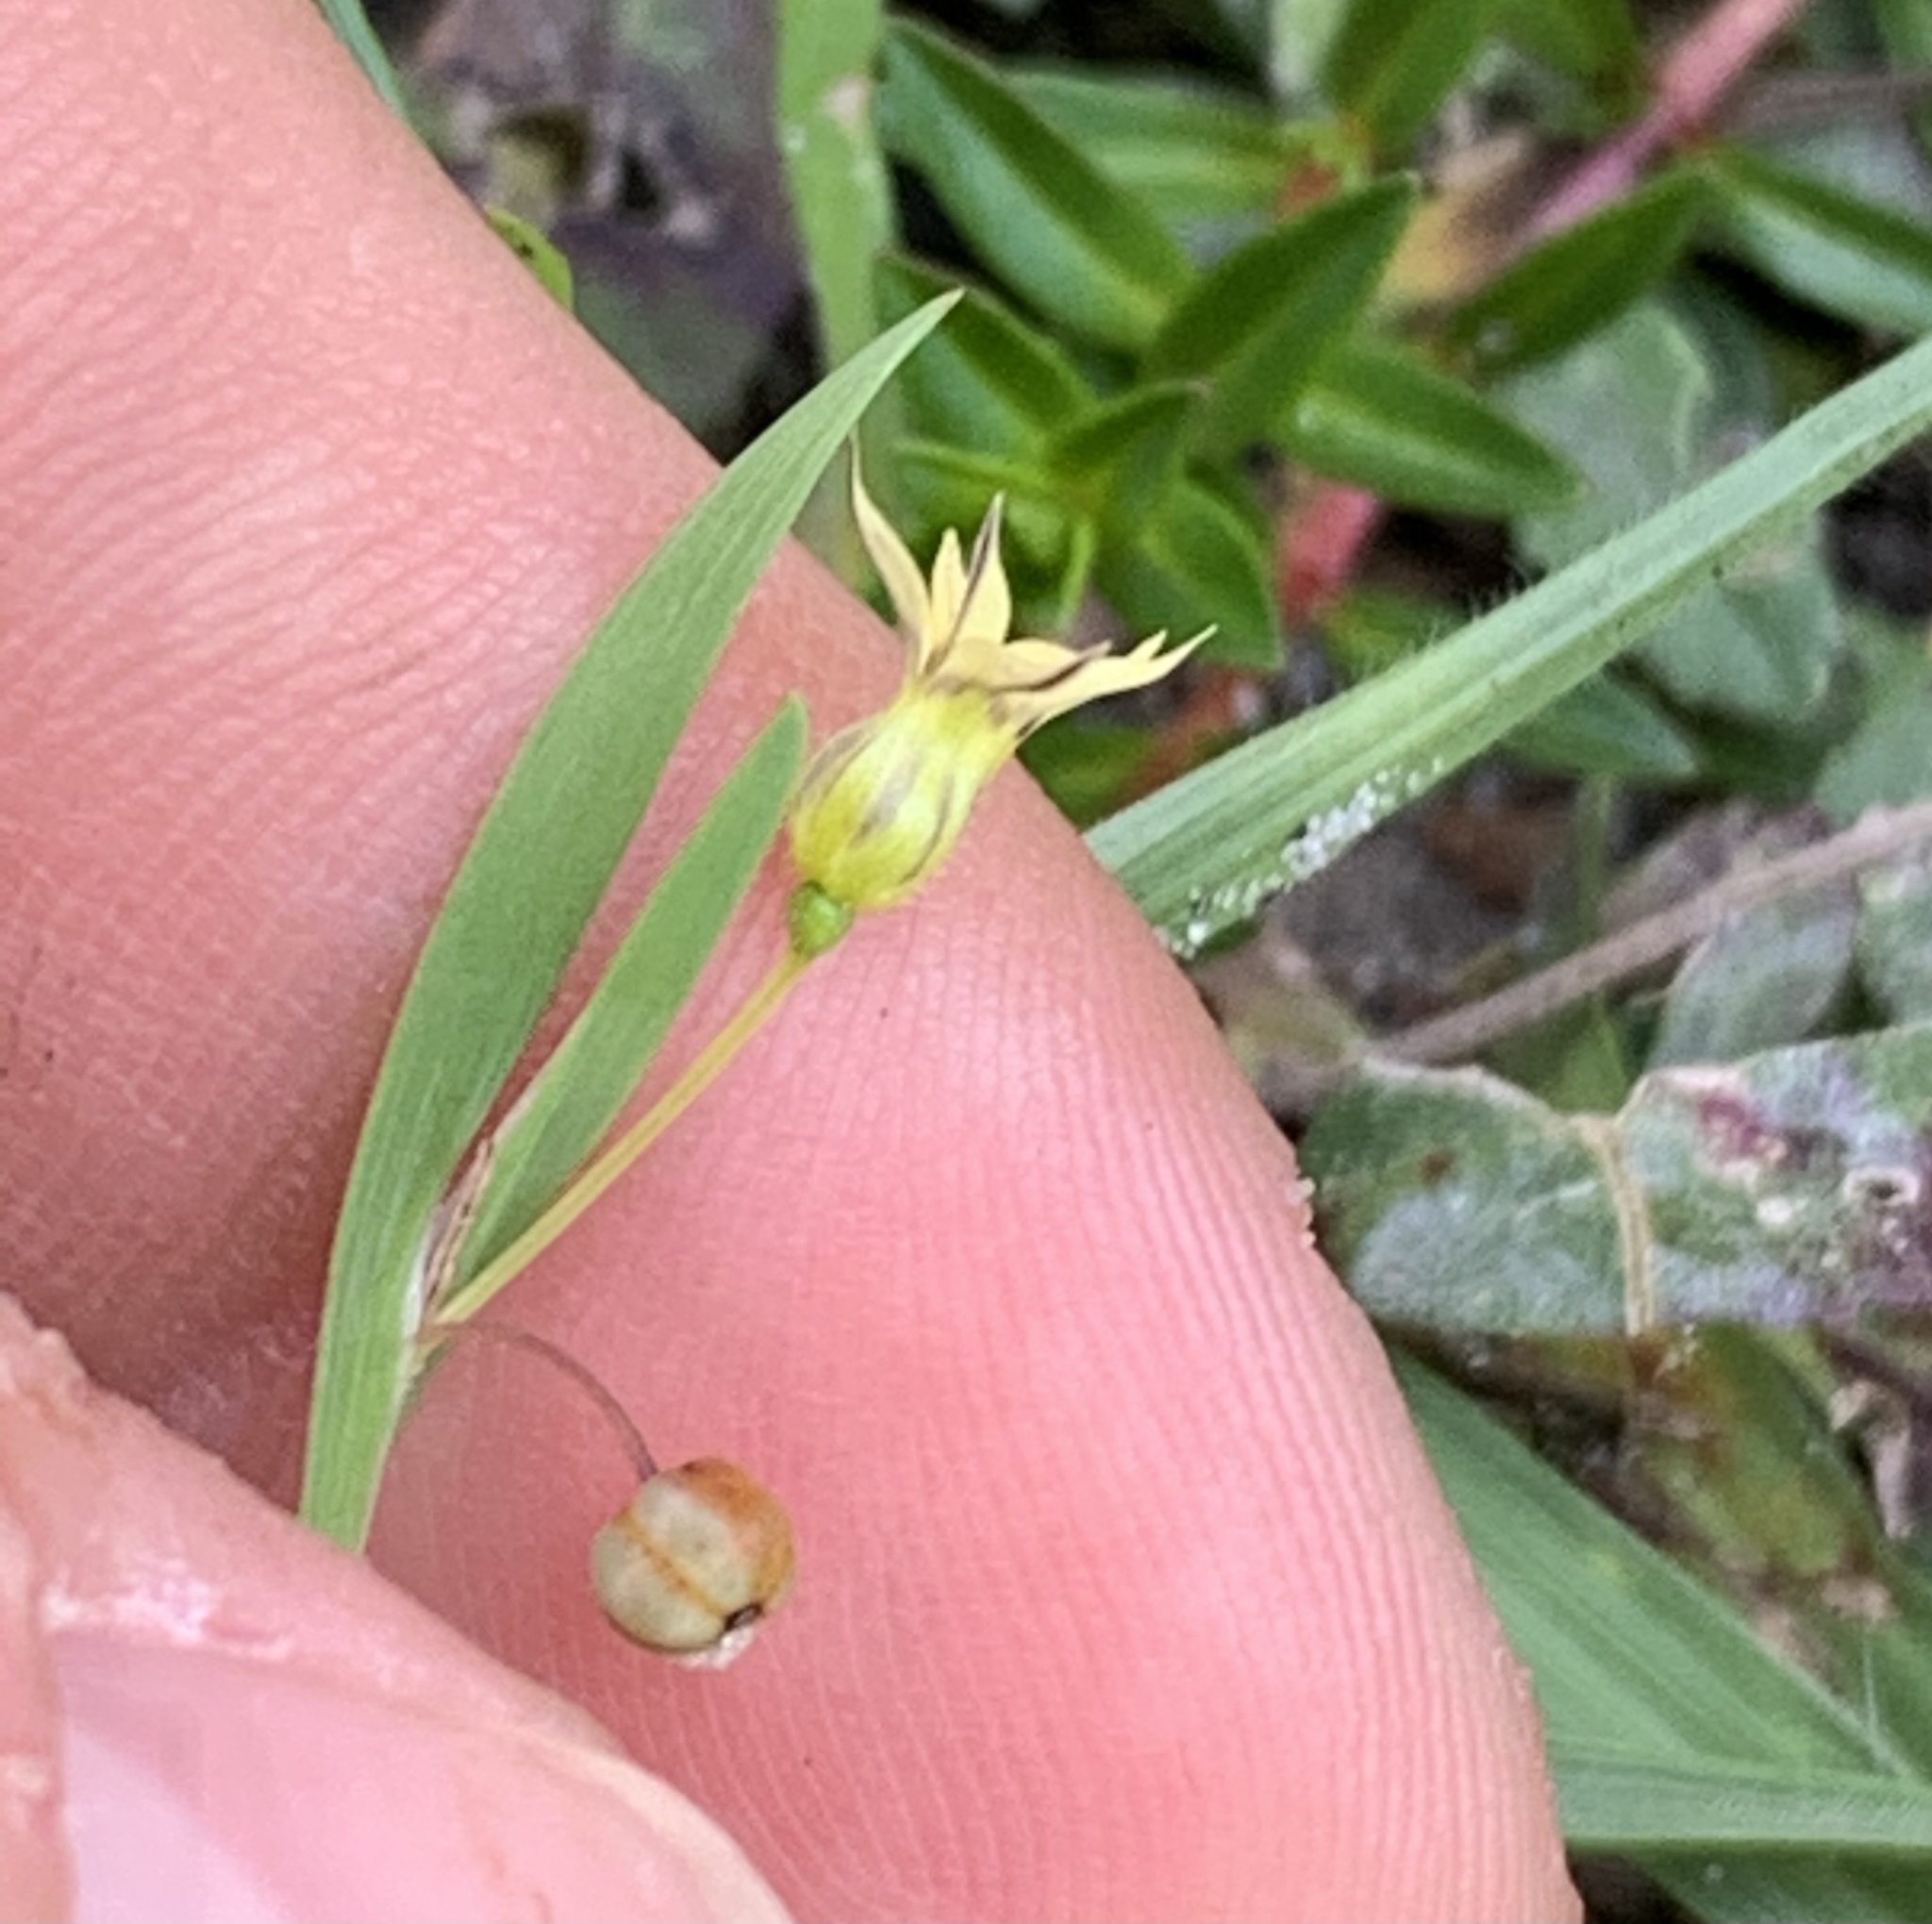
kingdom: Plantae
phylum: Tracheophyta
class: Liliopsida
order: Asparagales
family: Iridaceae
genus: Sisyrinchium
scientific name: Sisyrinchium micranthum
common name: Bermuda pigroot
